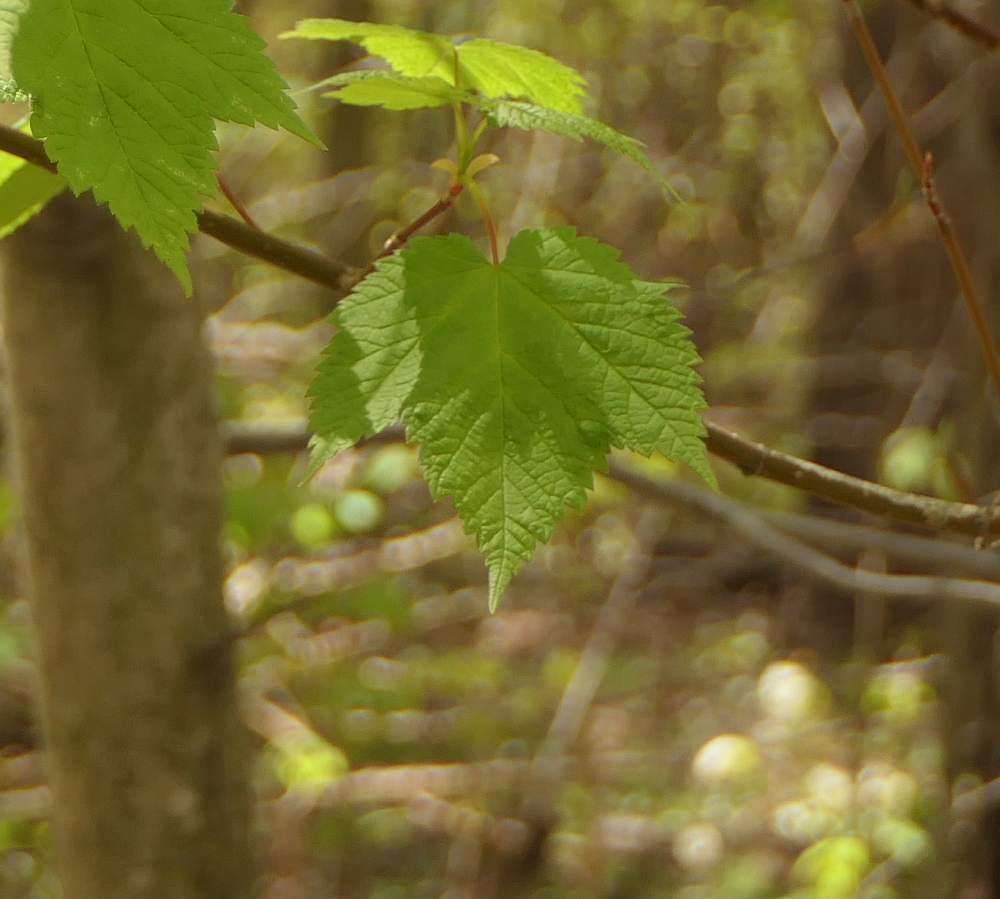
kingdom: Plantae
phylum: Tracheophyta
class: Magnoliopsida
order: Sapindales
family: Sapindaceae
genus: Acer
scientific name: Acer spicatum
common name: Mountain maple
